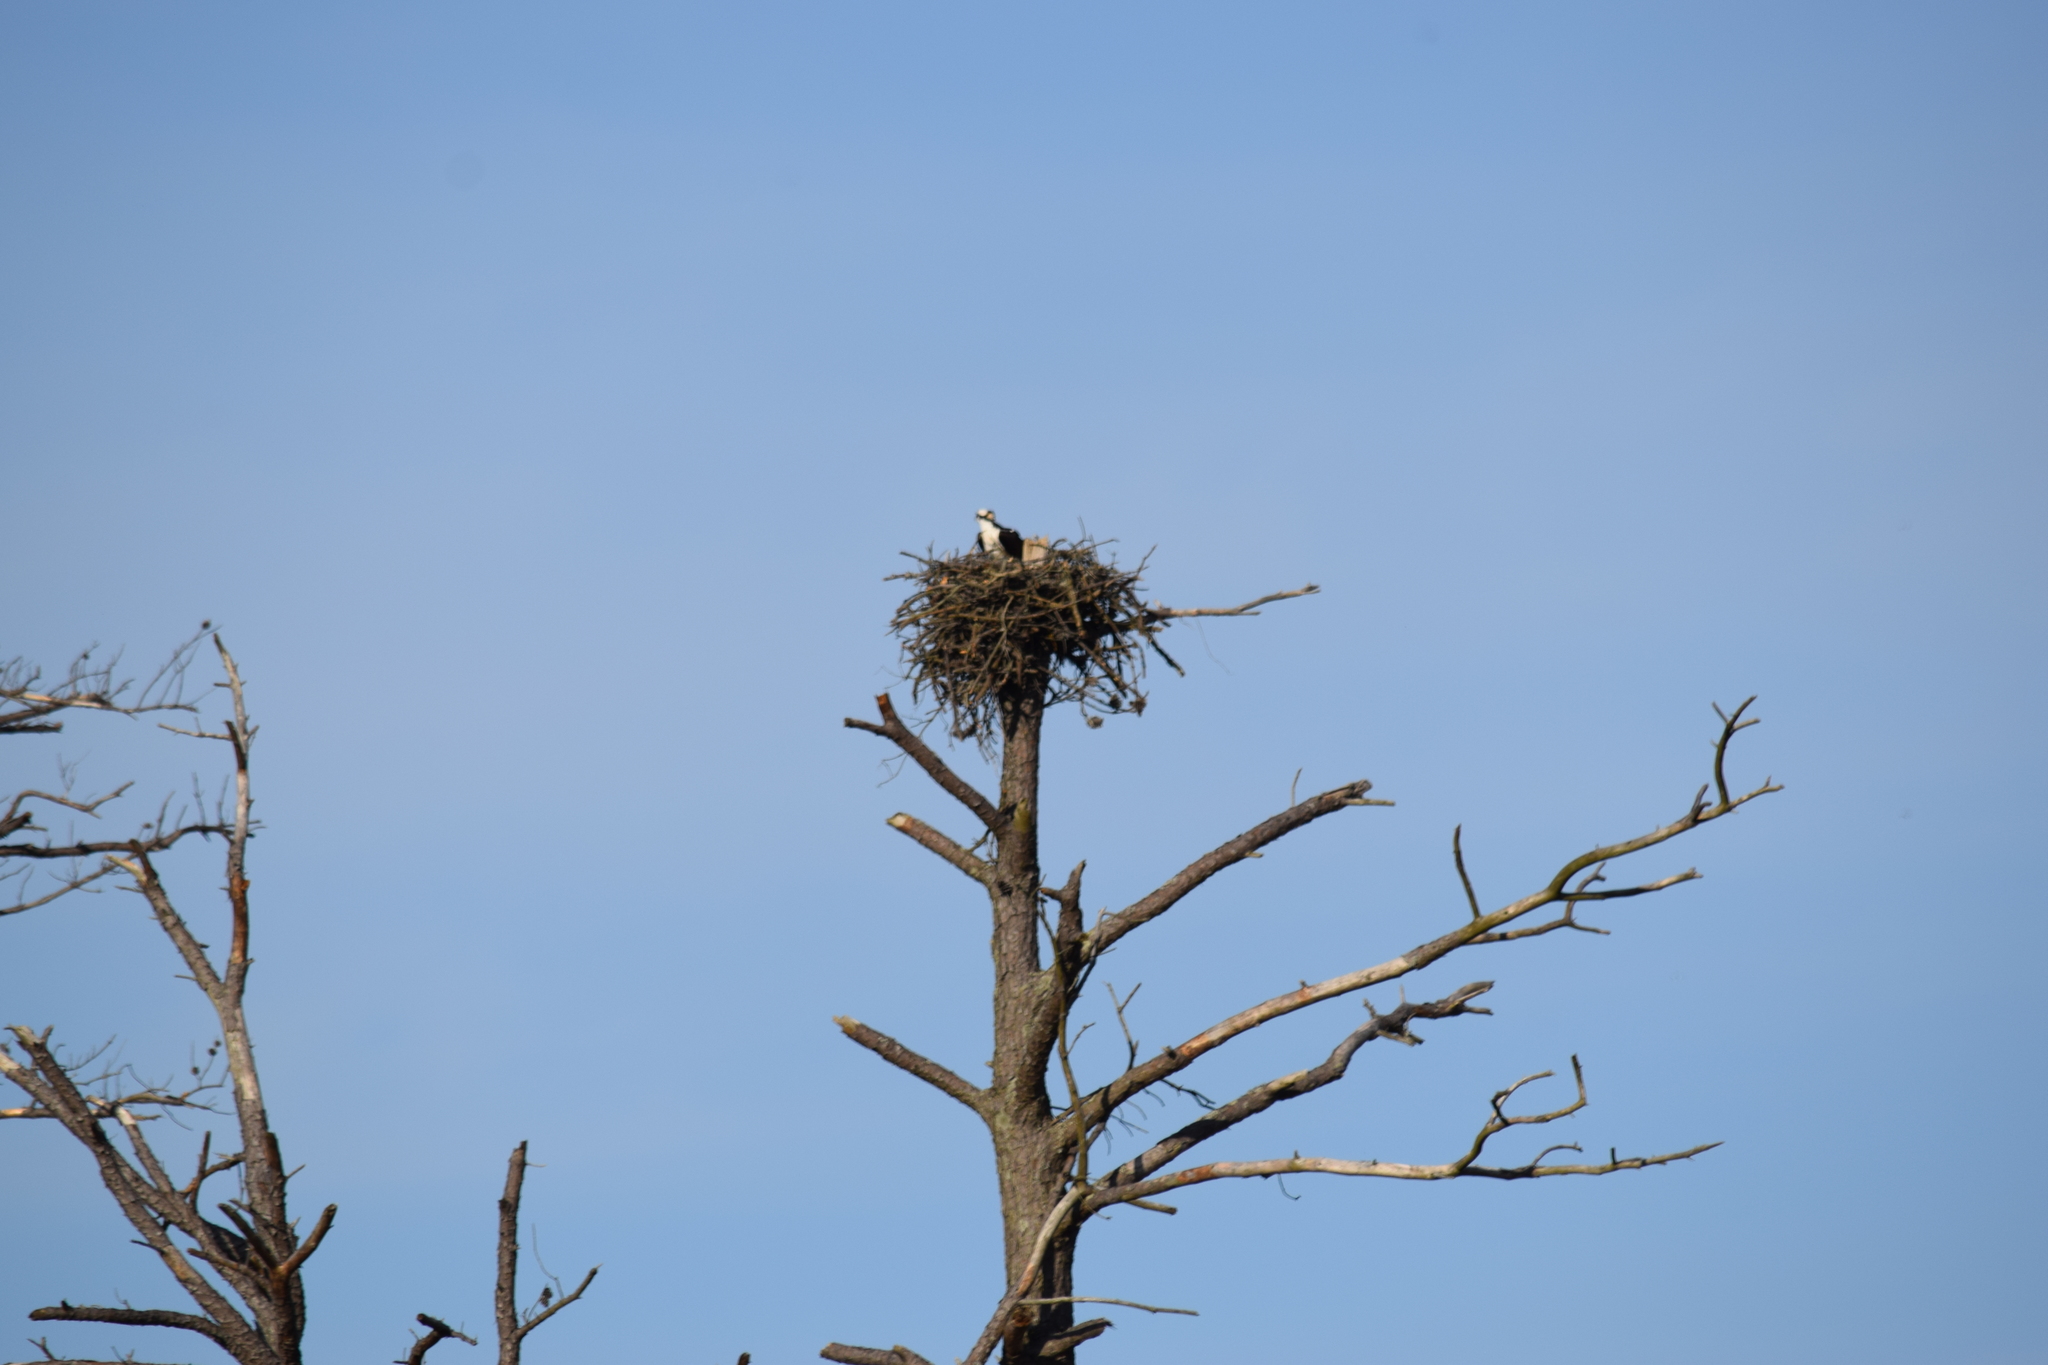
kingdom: Animalia
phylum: Chordata
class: Aves
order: Accipitriformes
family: Pandionidae
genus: Pandion
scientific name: Pandion haliaetus
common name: Osprey
